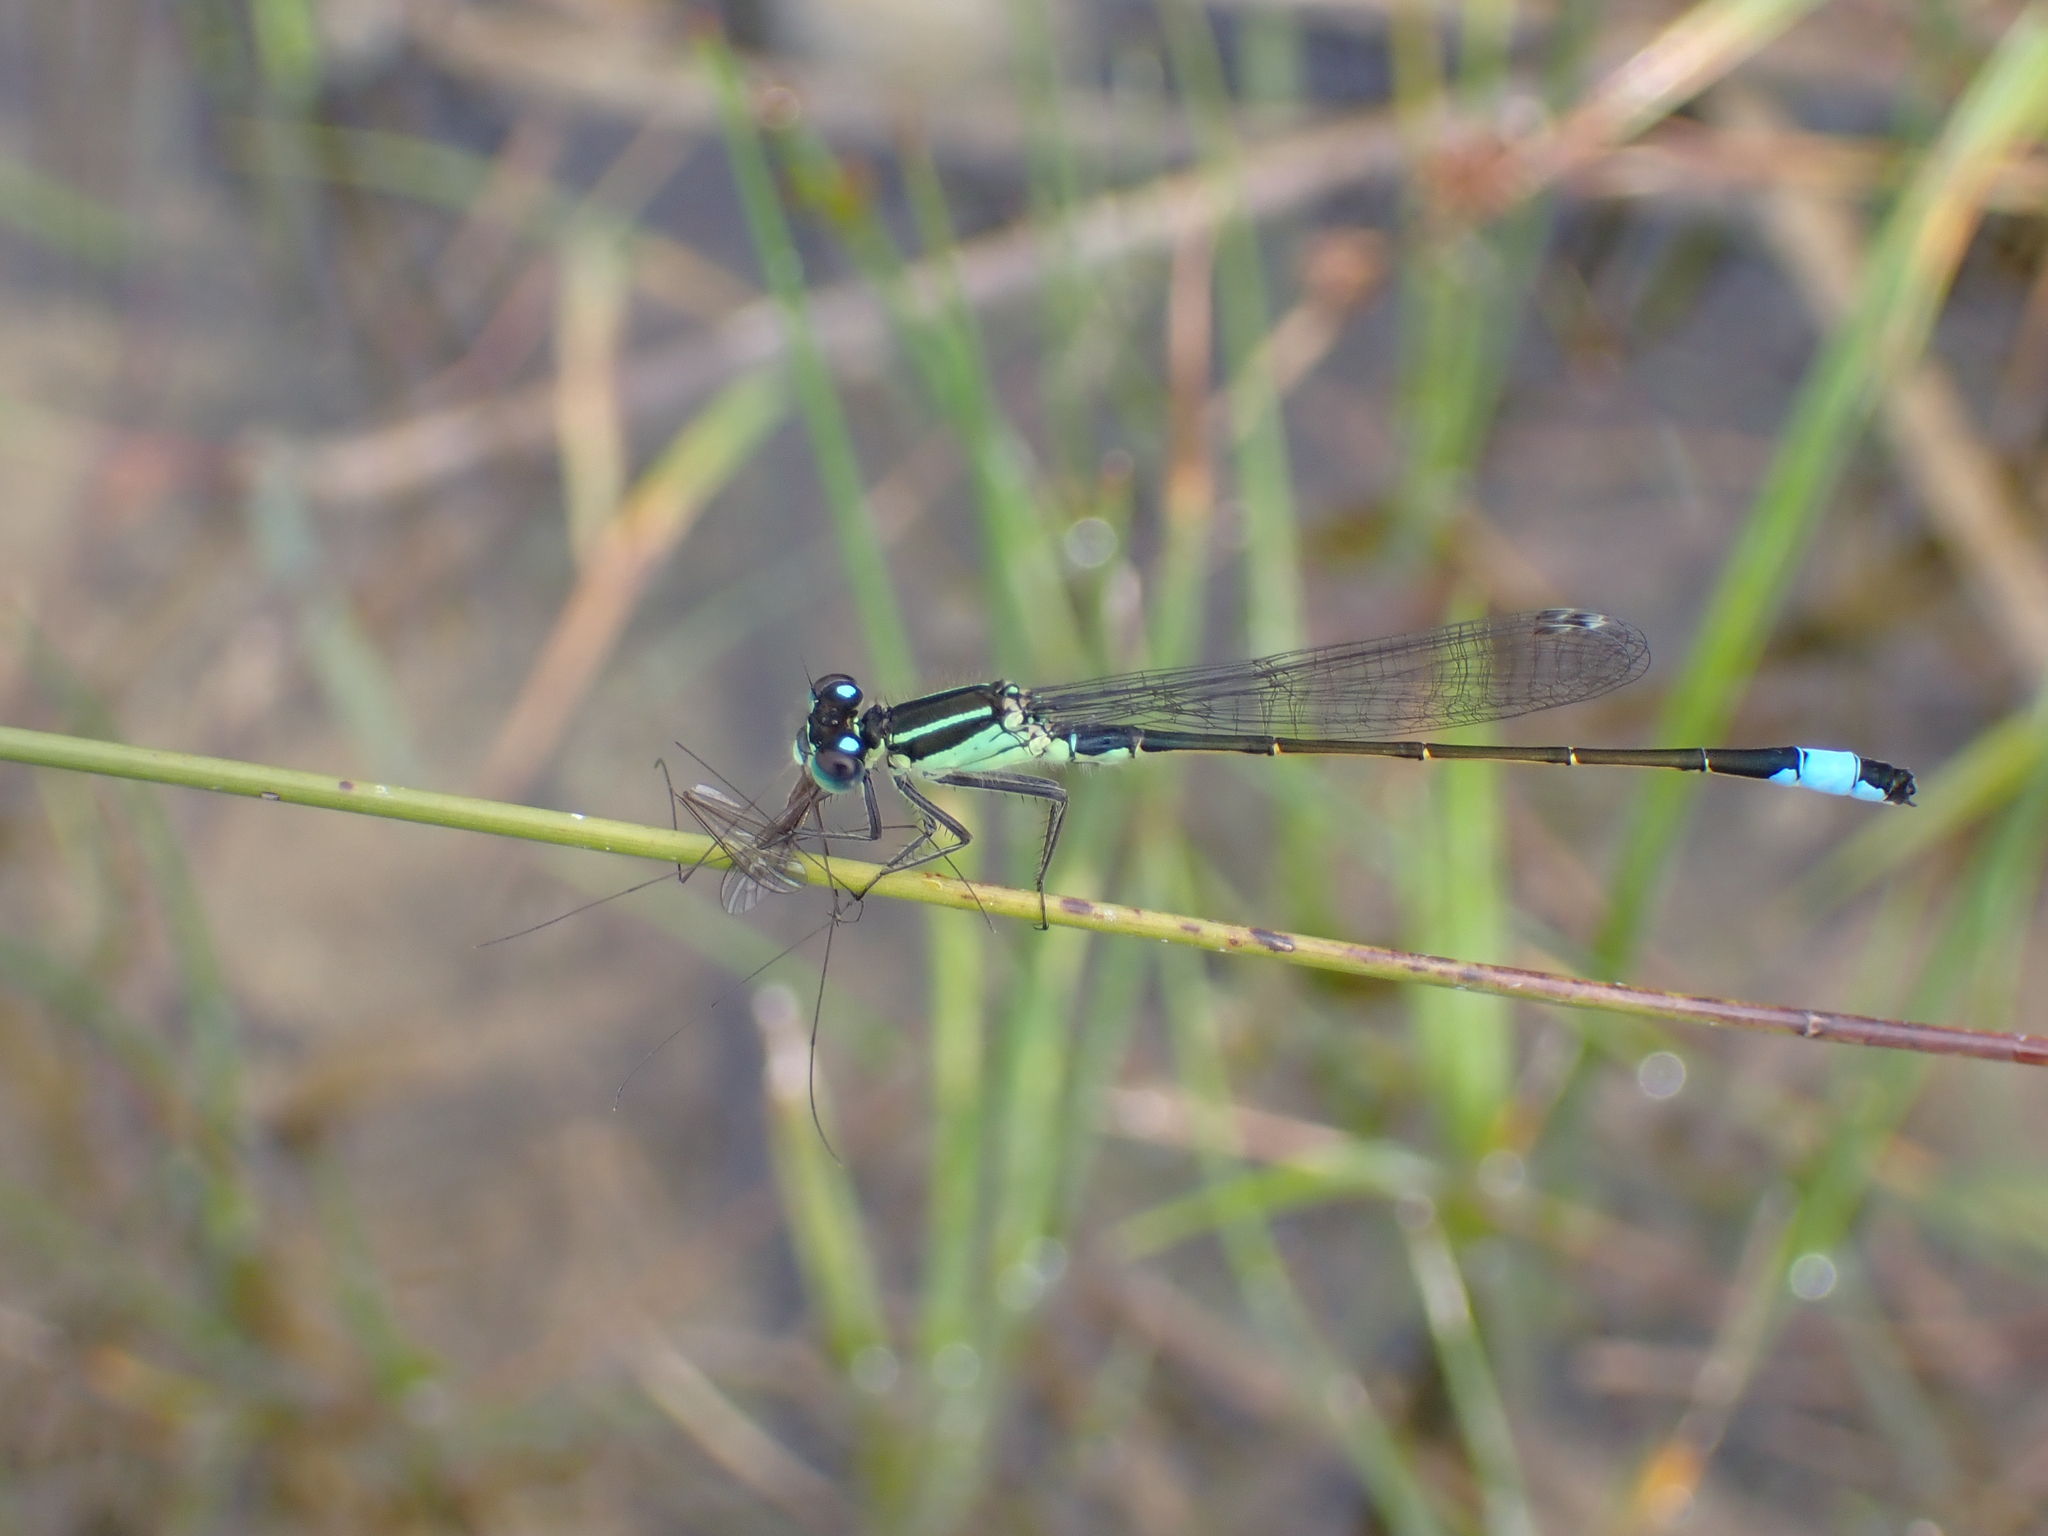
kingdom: Animalia
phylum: Arthropoda
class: Insecta
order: Odonata
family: Coenagrionidae
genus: Ischnura
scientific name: Ischnura elegans
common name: Blue-tailed damselfly
